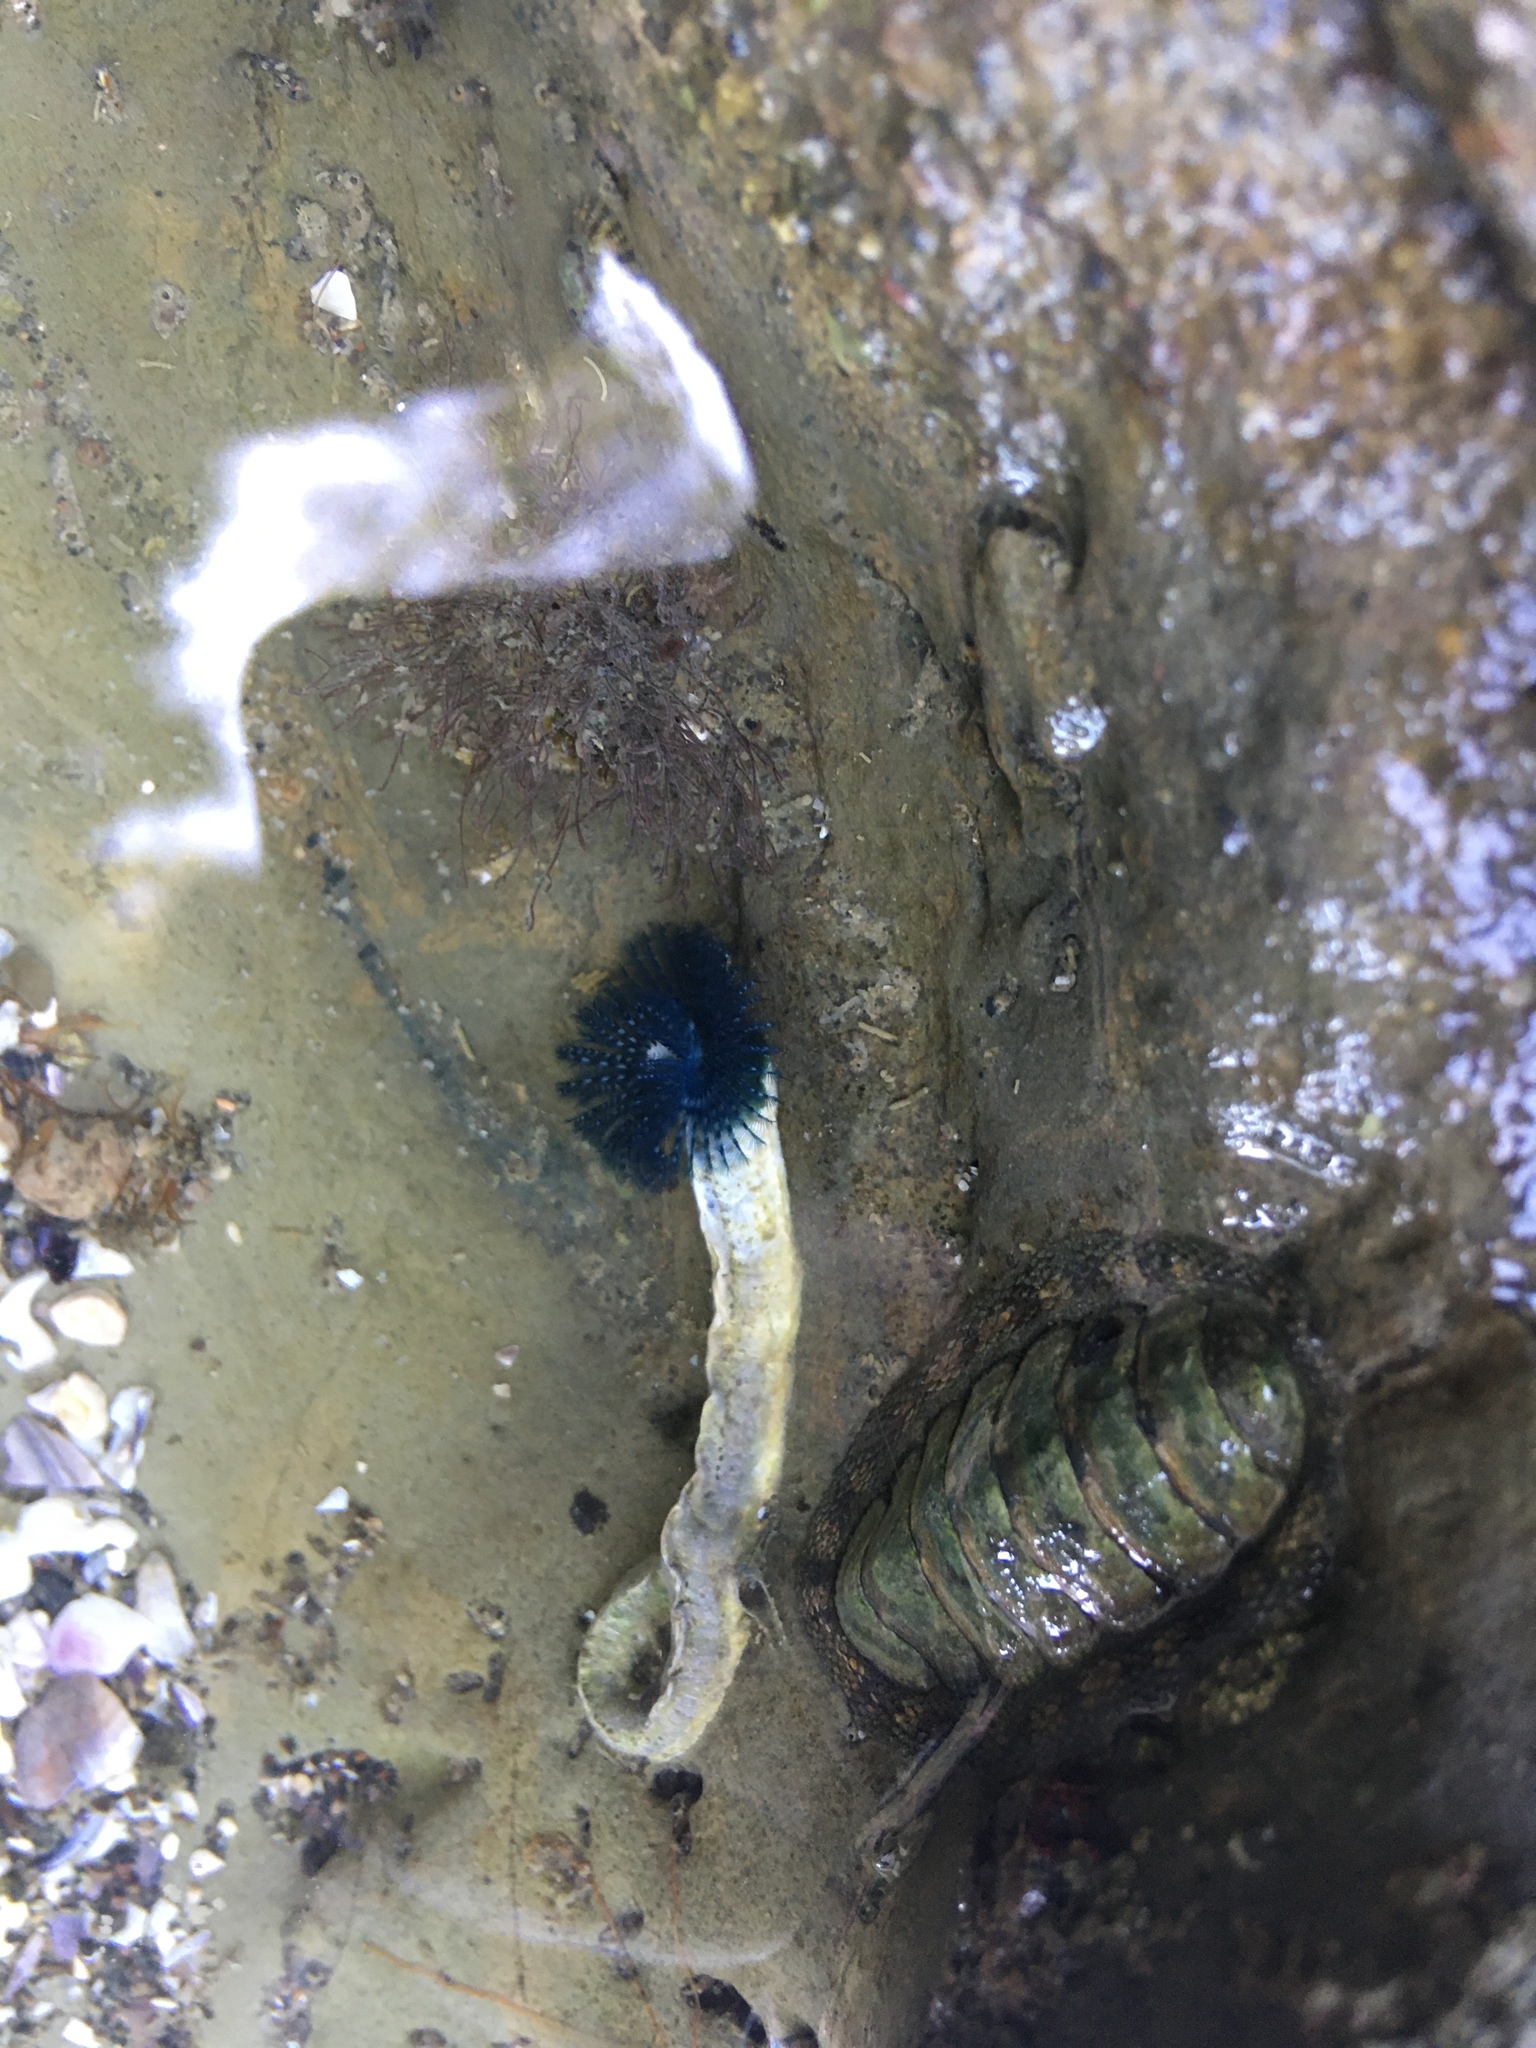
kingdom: Animalia
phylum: Mollusca
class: Polyplacophora
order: Chitonida
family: Chitonidae
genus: Sypharochiton
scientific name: Sypharochiton pelliserpentis
